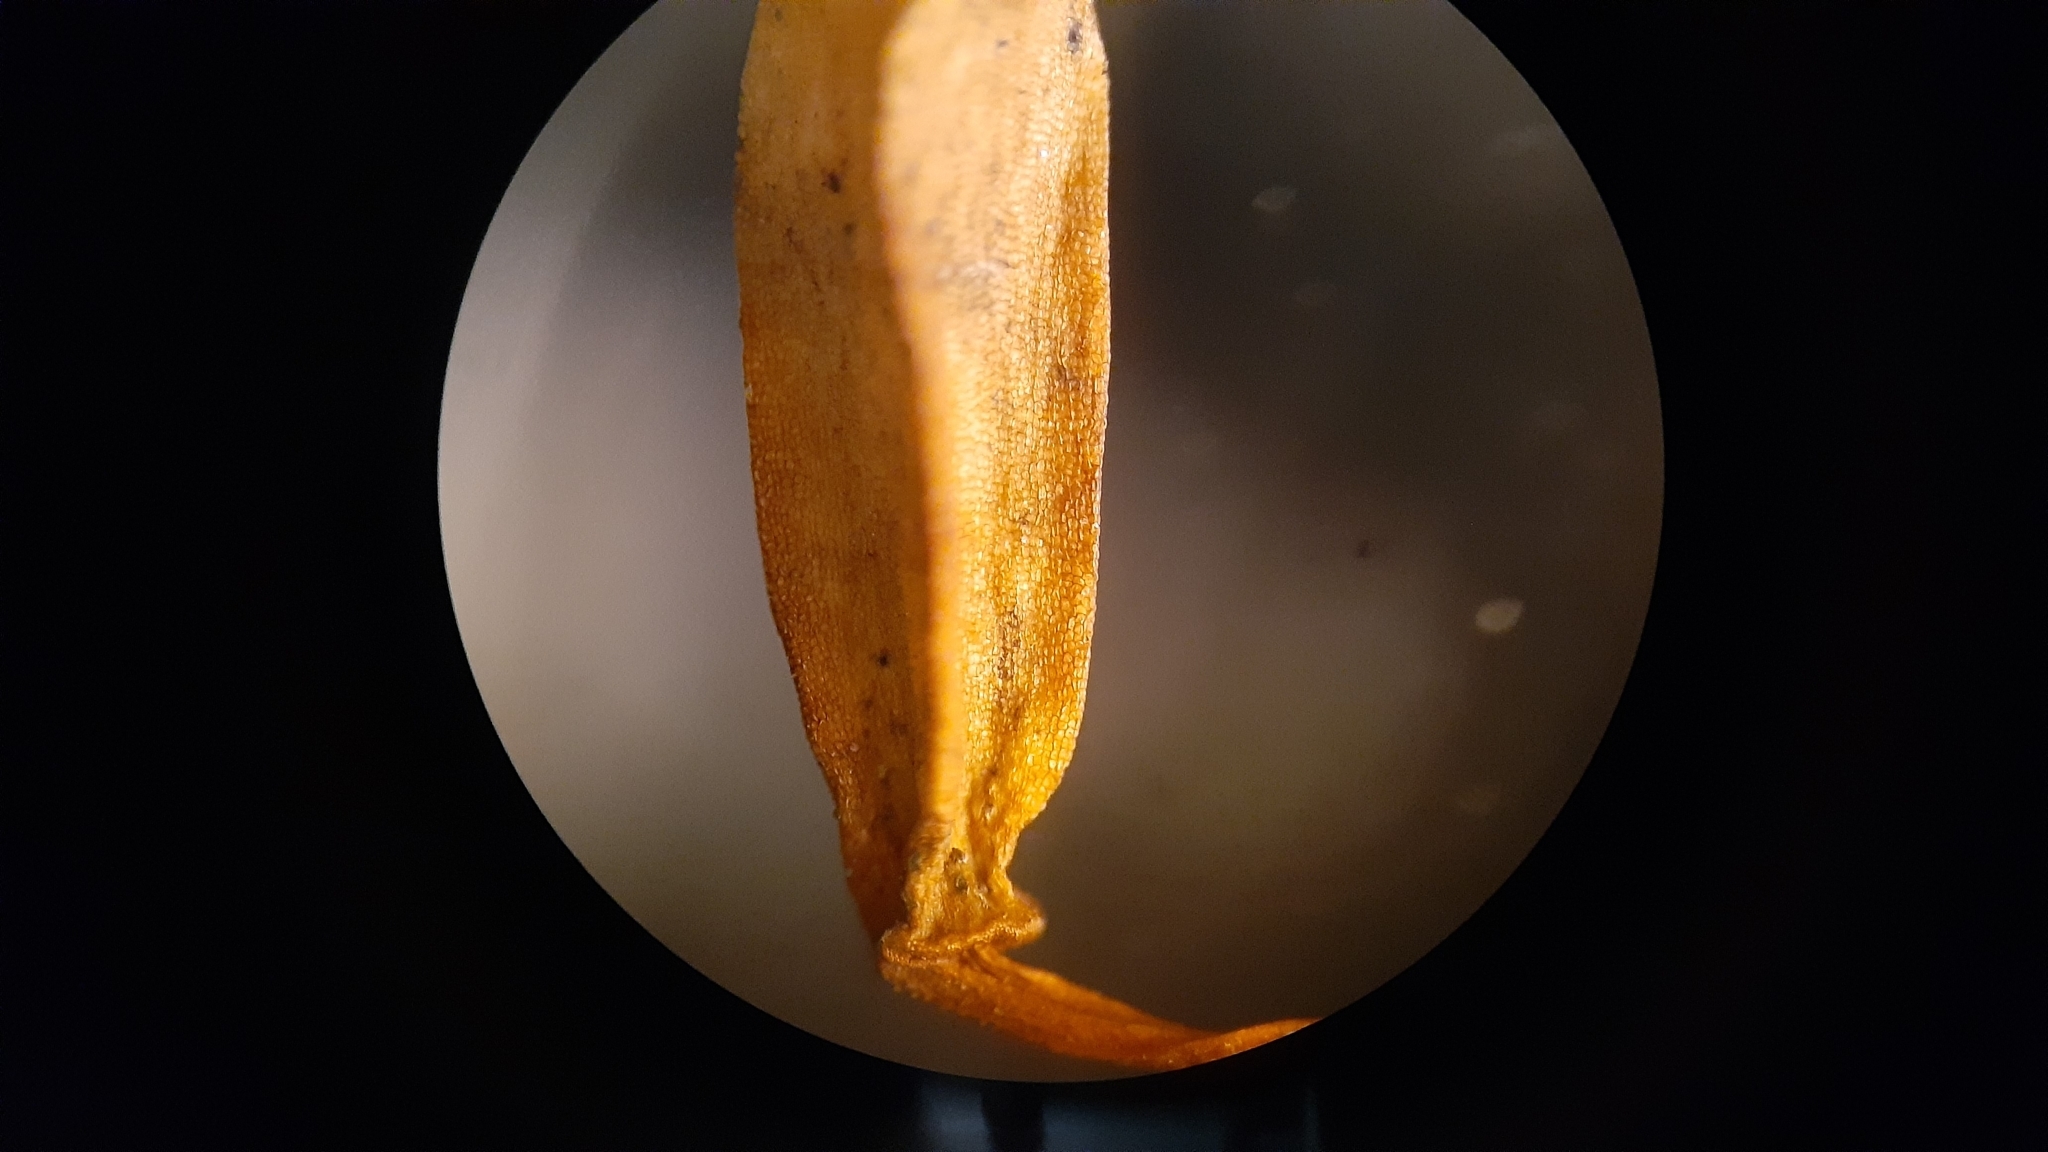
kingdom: Plantae
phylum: Bryophyta
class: Polytrichopsida
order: Polytrichales
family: Polytrichaceae
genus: Polytrichum
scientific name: Polytrichum ohioense
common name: Ohio polytrichum moss
